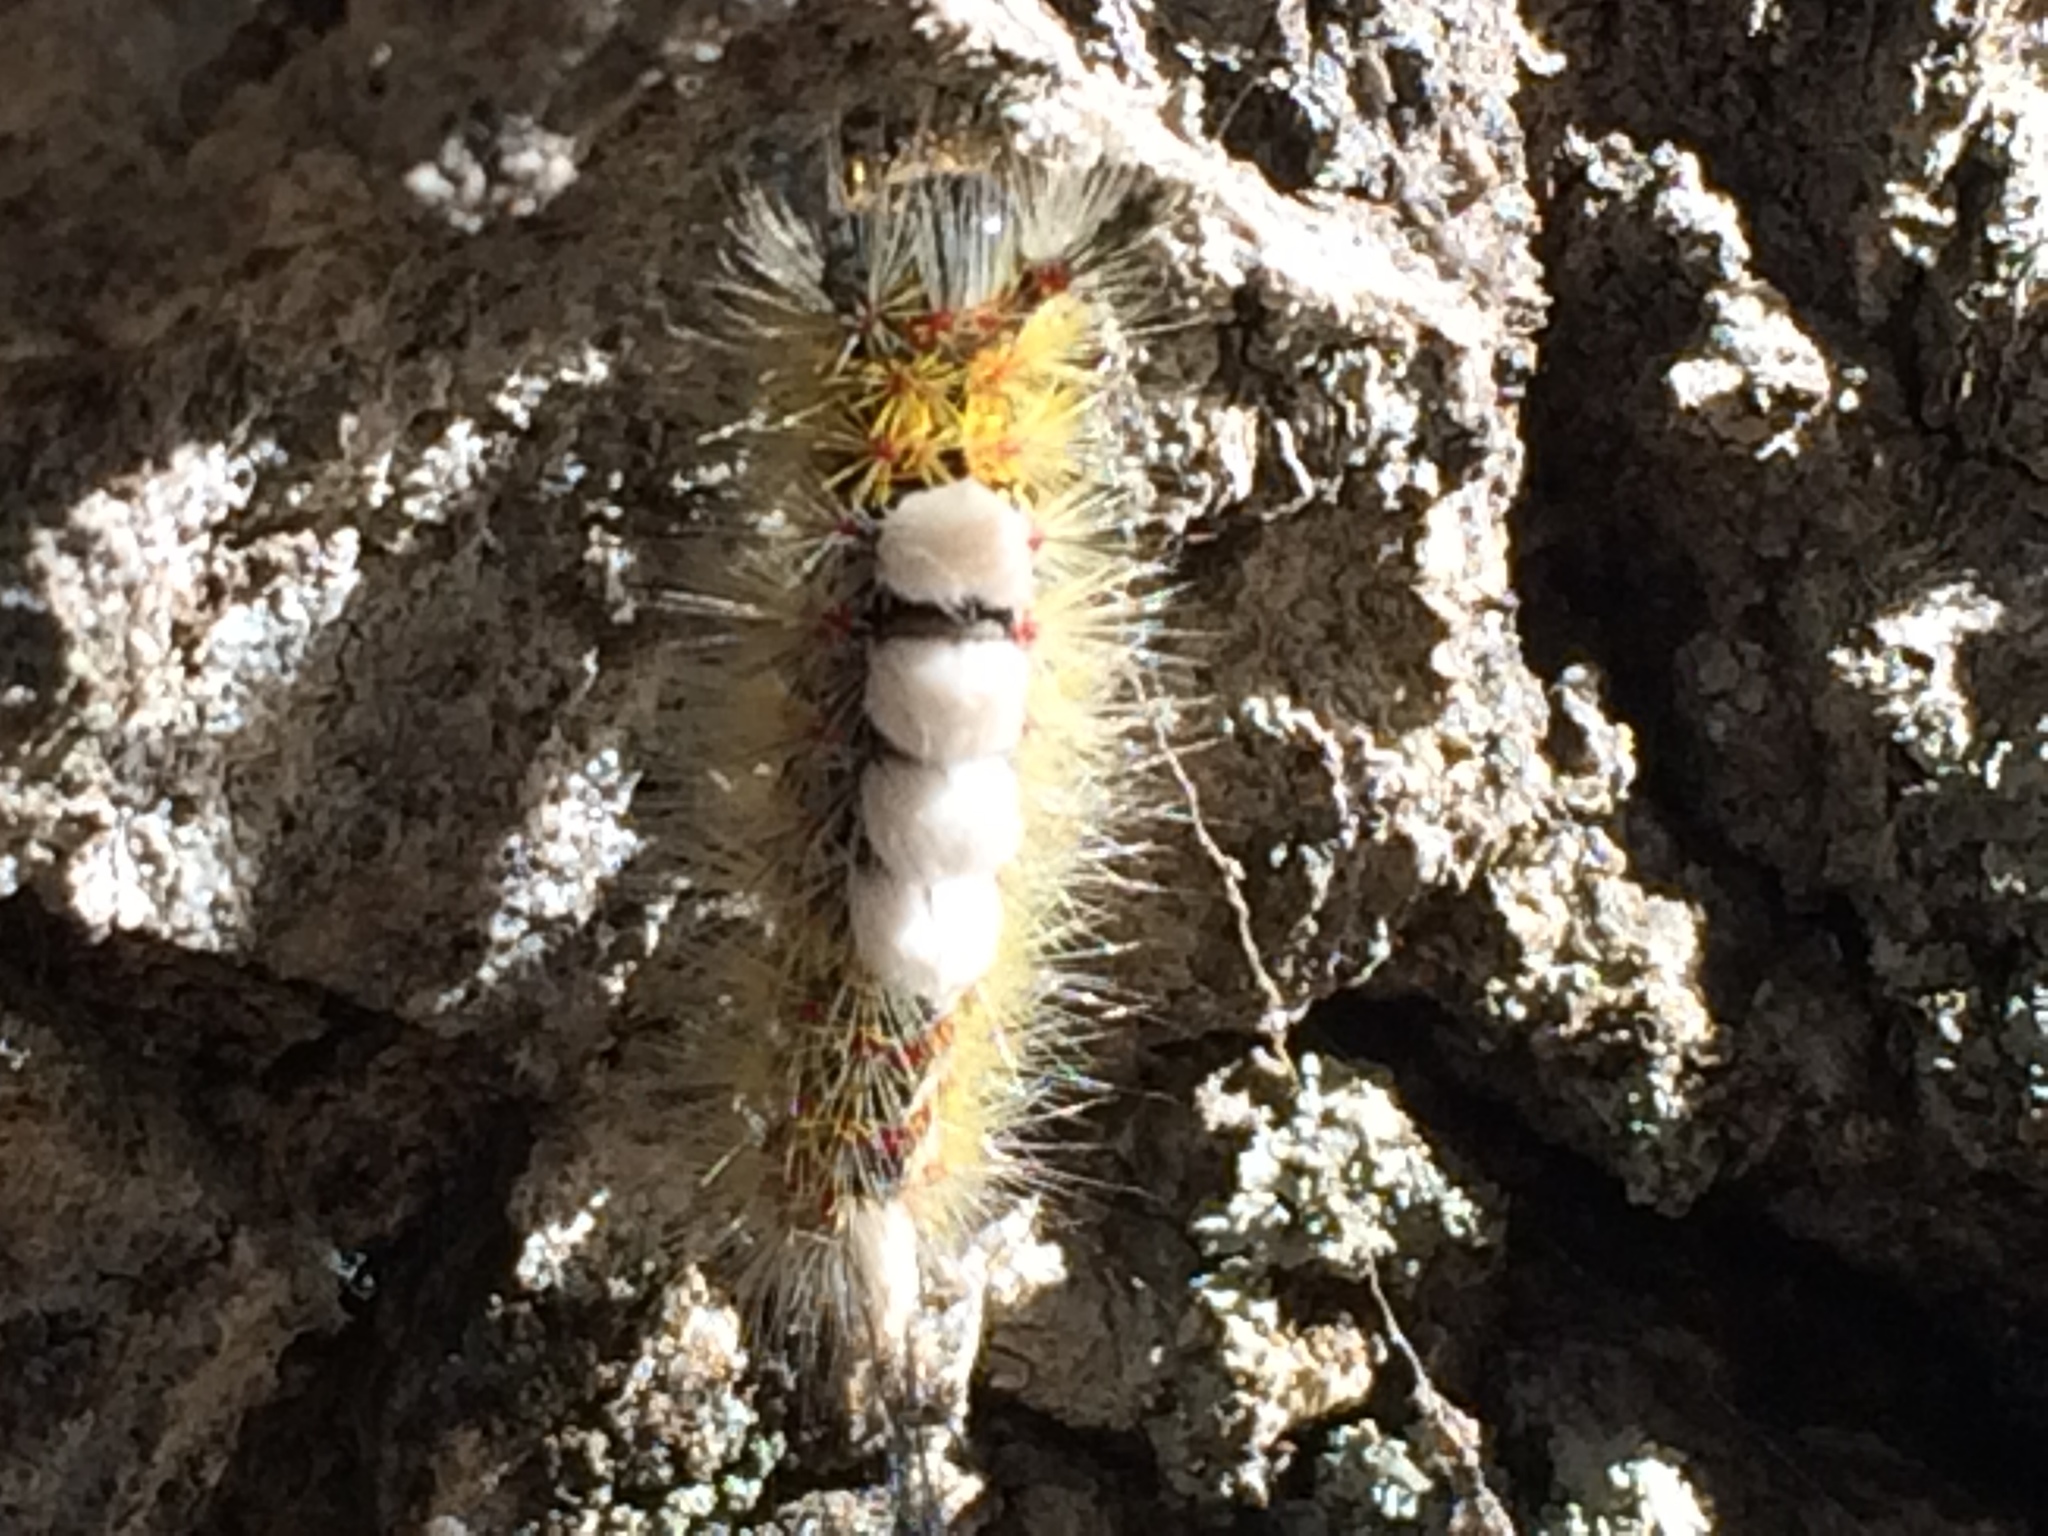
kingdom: Animalia
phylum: Arthropoda
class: Insecta
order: Lepidoptera
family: Erebidae
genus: Orgyia
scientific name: Orgyia vetusta
